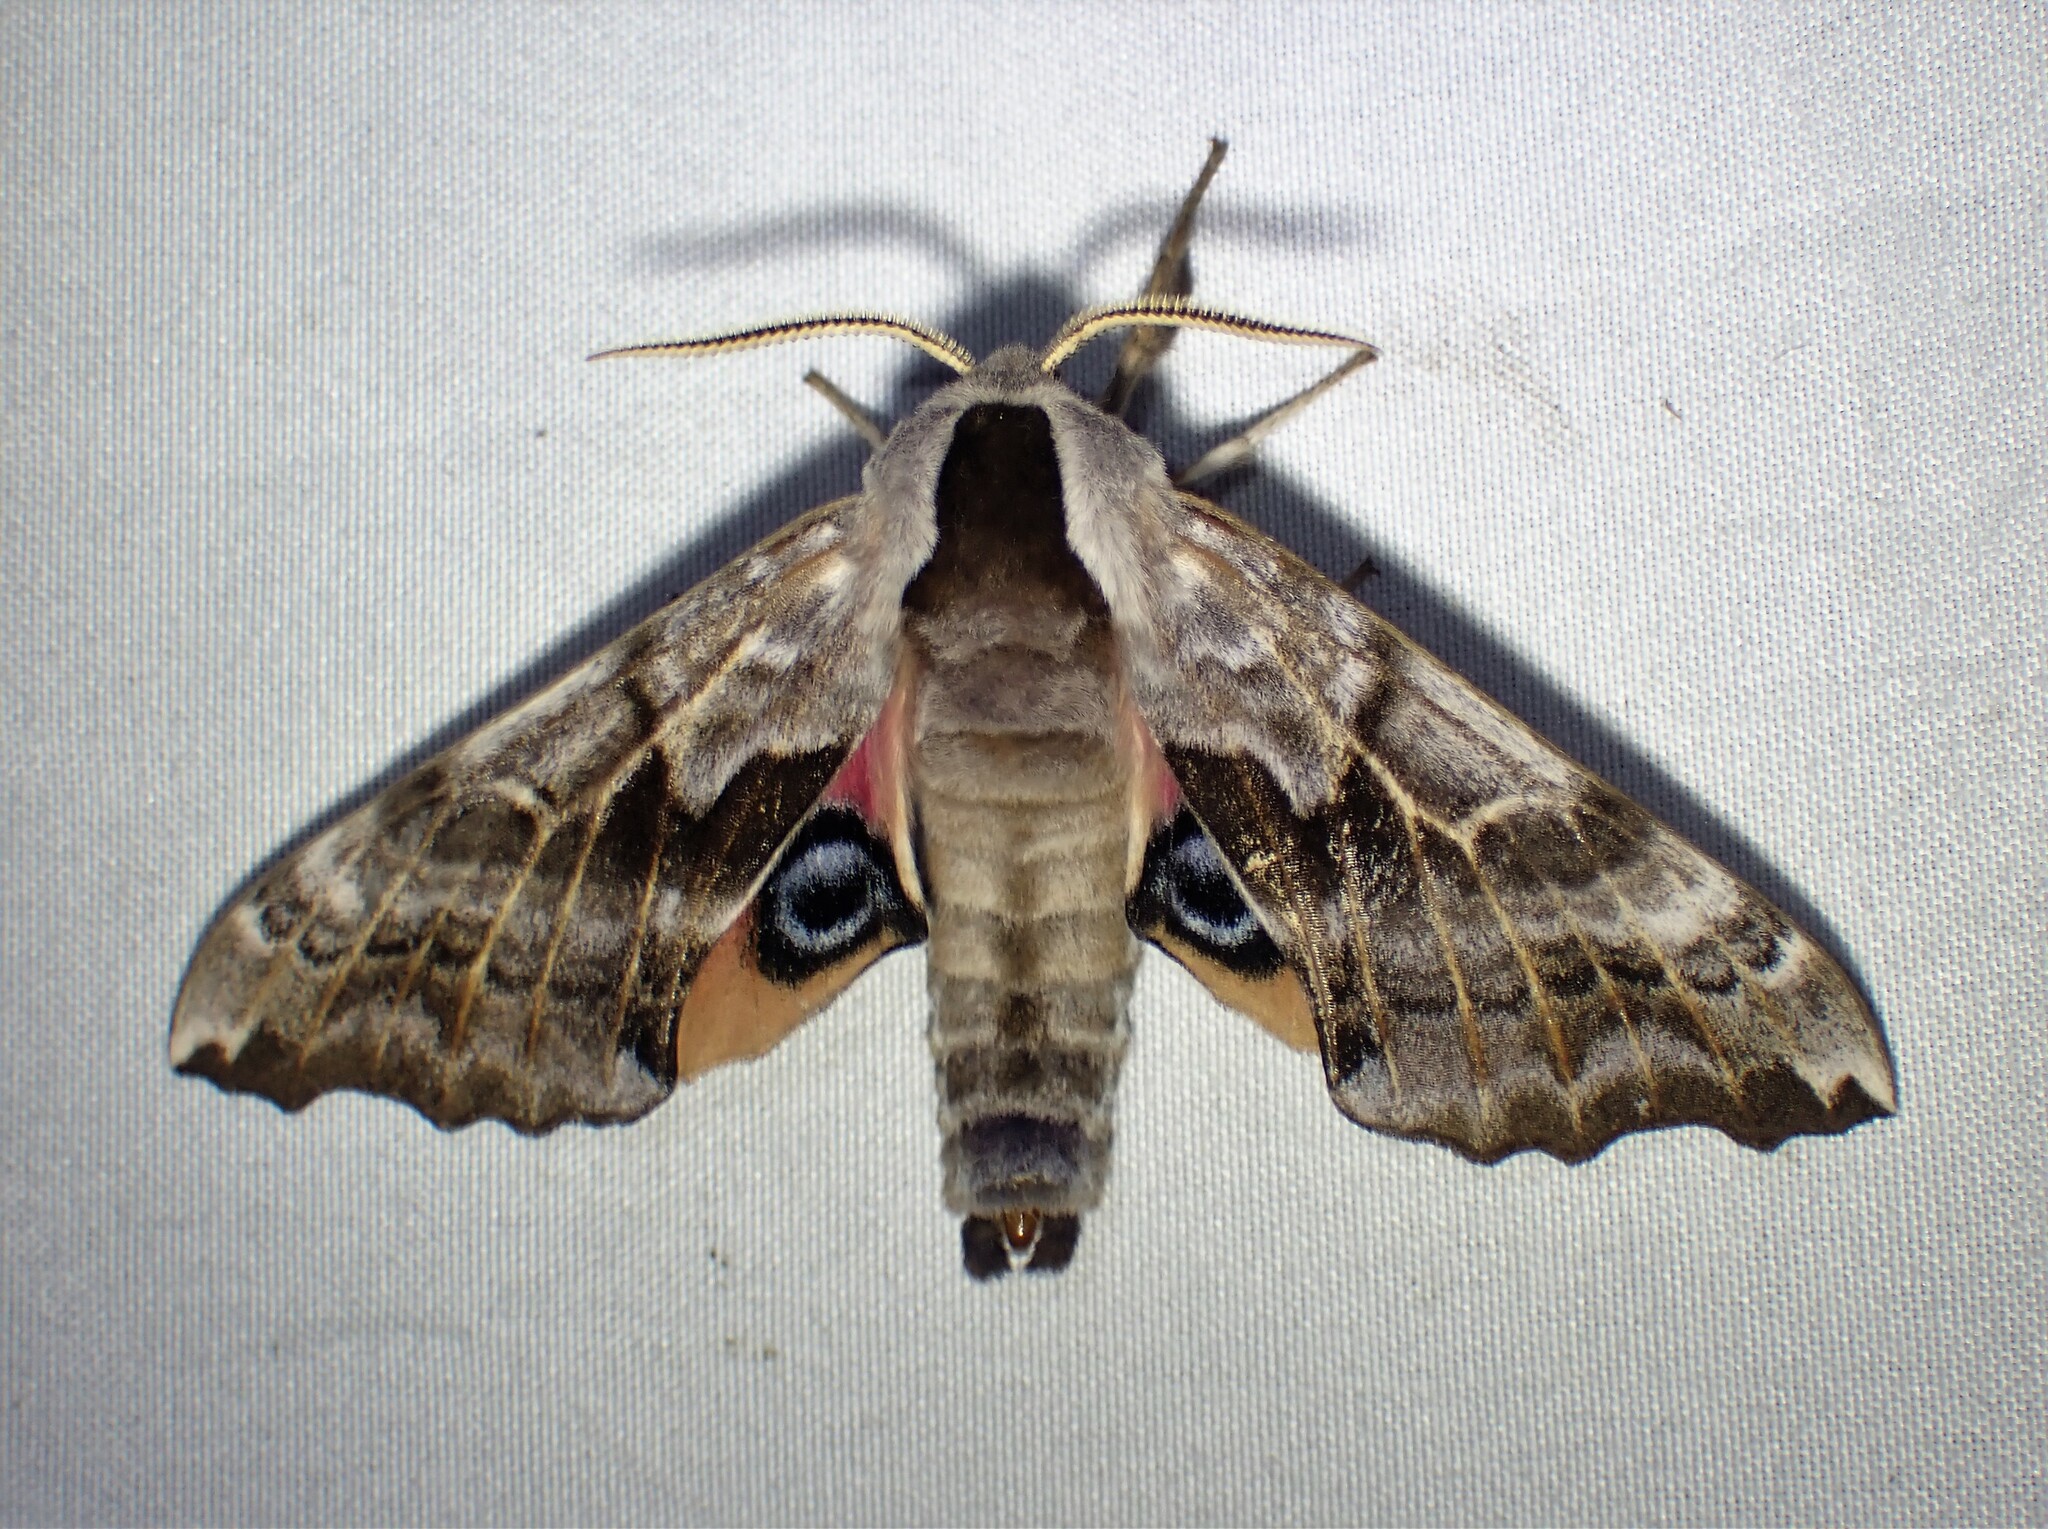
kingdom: Animalia
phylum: Arthropoda
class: Insecta
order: Lepidoptera
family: Sphingidae
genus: Smerinthus
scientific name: Smerinthus cerisyi
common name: Cerisy's sphinx moth
